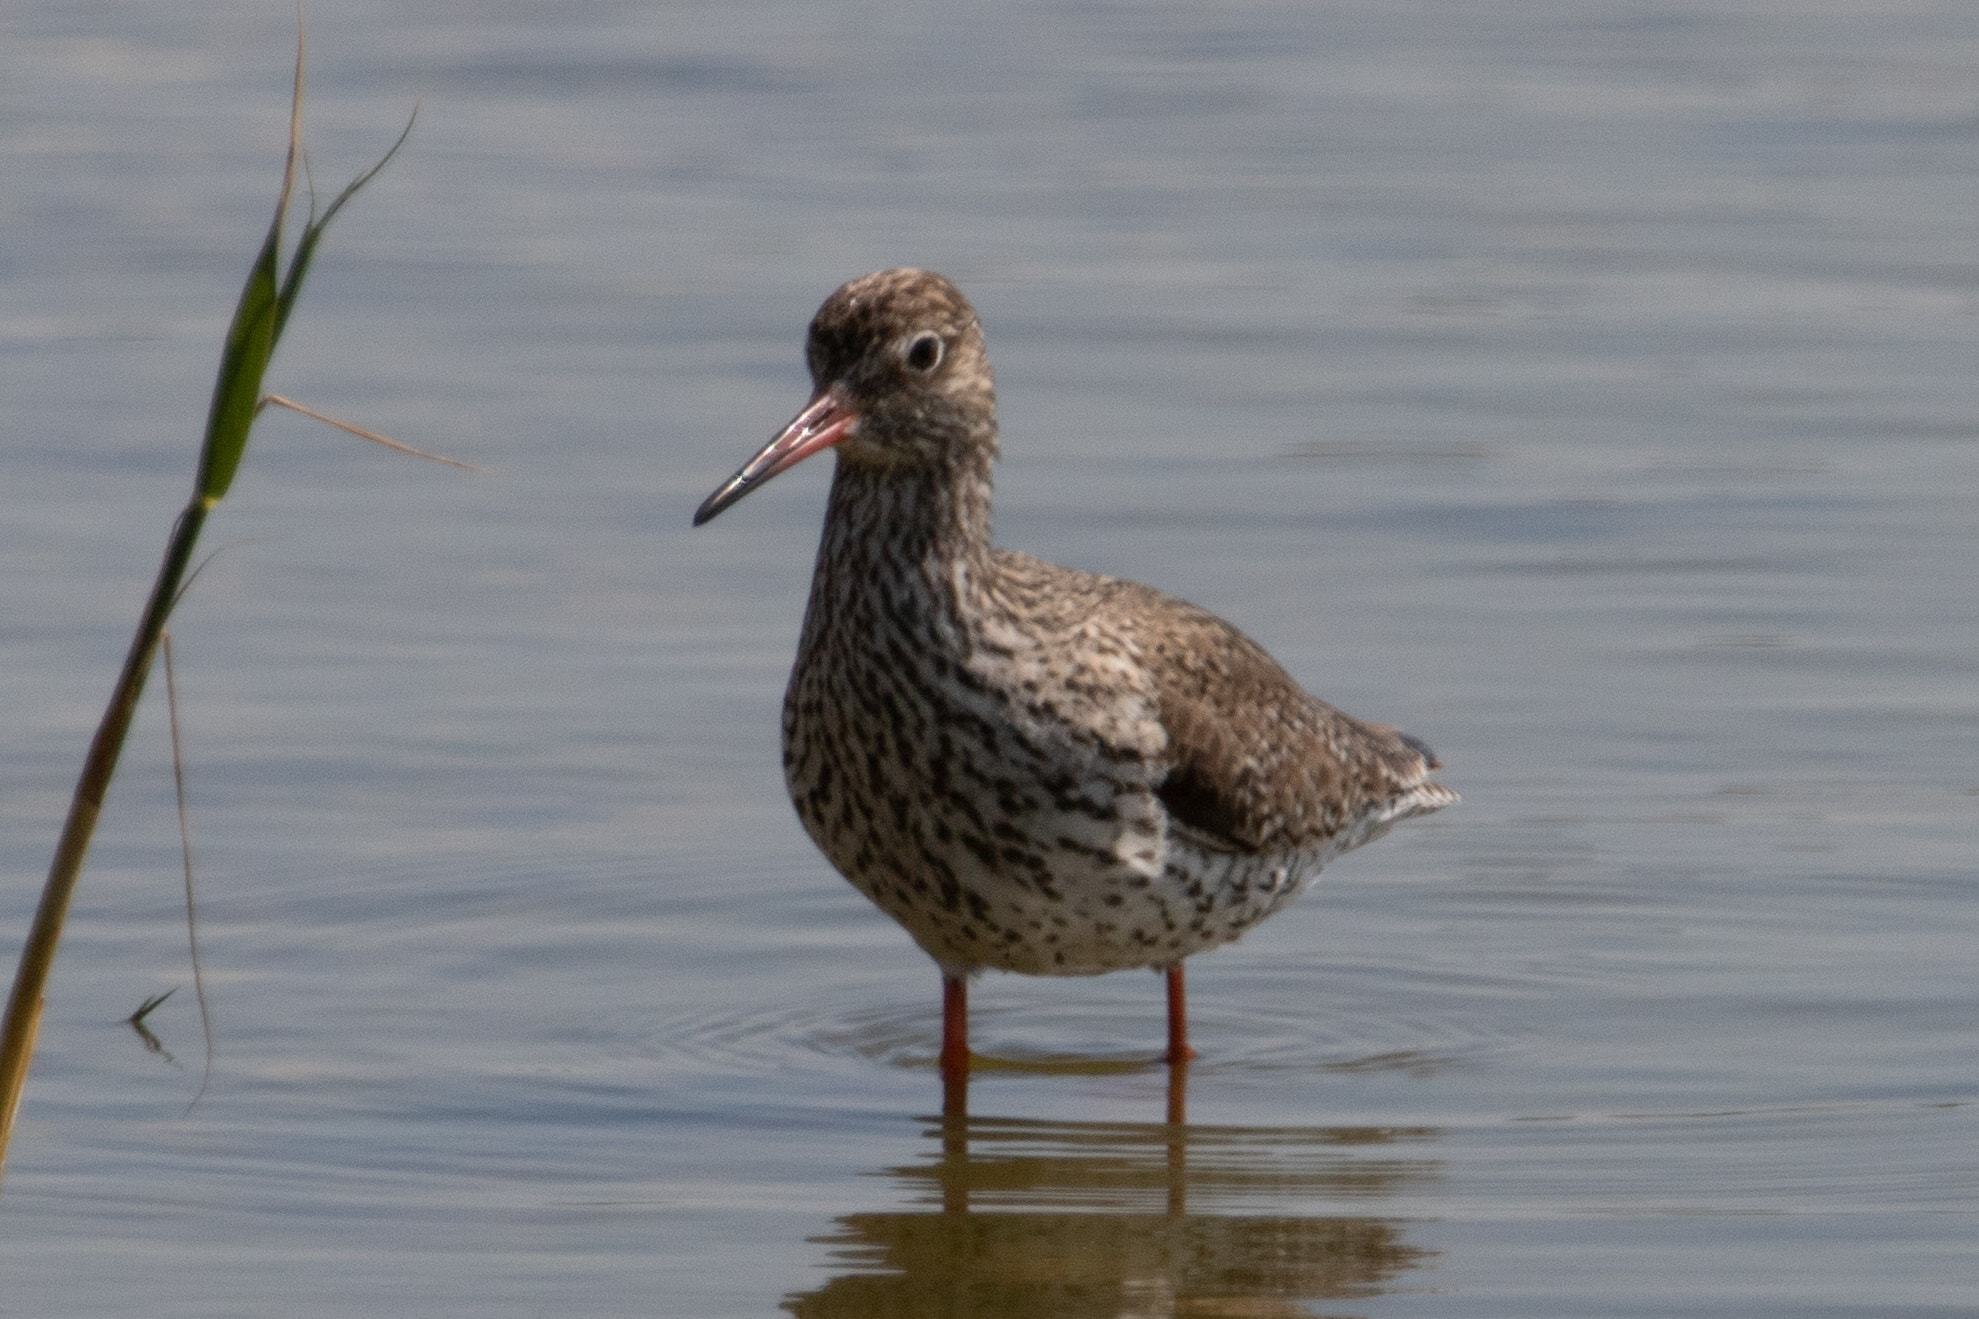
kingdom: Animalia
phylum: Chordata
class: Aves
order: Charadriiformes
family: Scolopacidae
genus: Tringa
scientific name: Tringa totanus
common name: Common redshank
